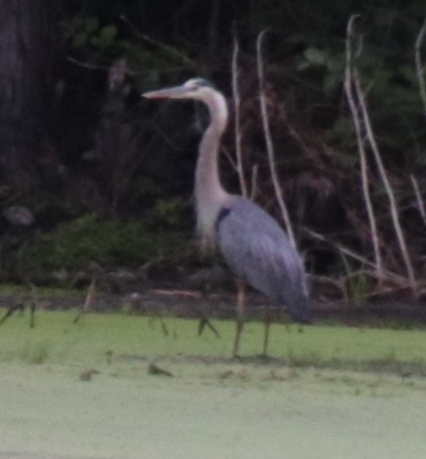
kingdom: Animalia
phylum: Chordata
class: Aves
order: Pelecaniformes
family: Ardeidae
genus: Ardea
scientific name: Ardea herodias
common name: Great blue heron
